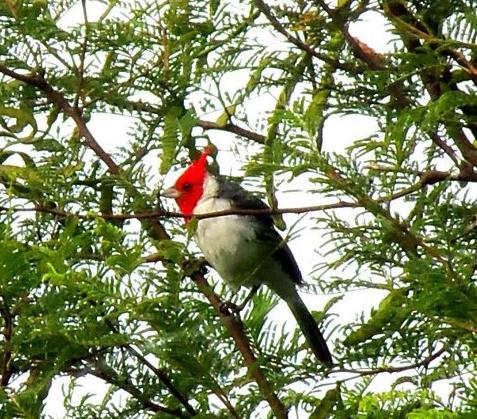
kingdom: Animalia
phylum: Chordata
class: Aves
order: Passeriformes
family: Thraupidae
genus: Paroaria
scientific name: Paroaria coronata
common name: Red-crested cardinal
